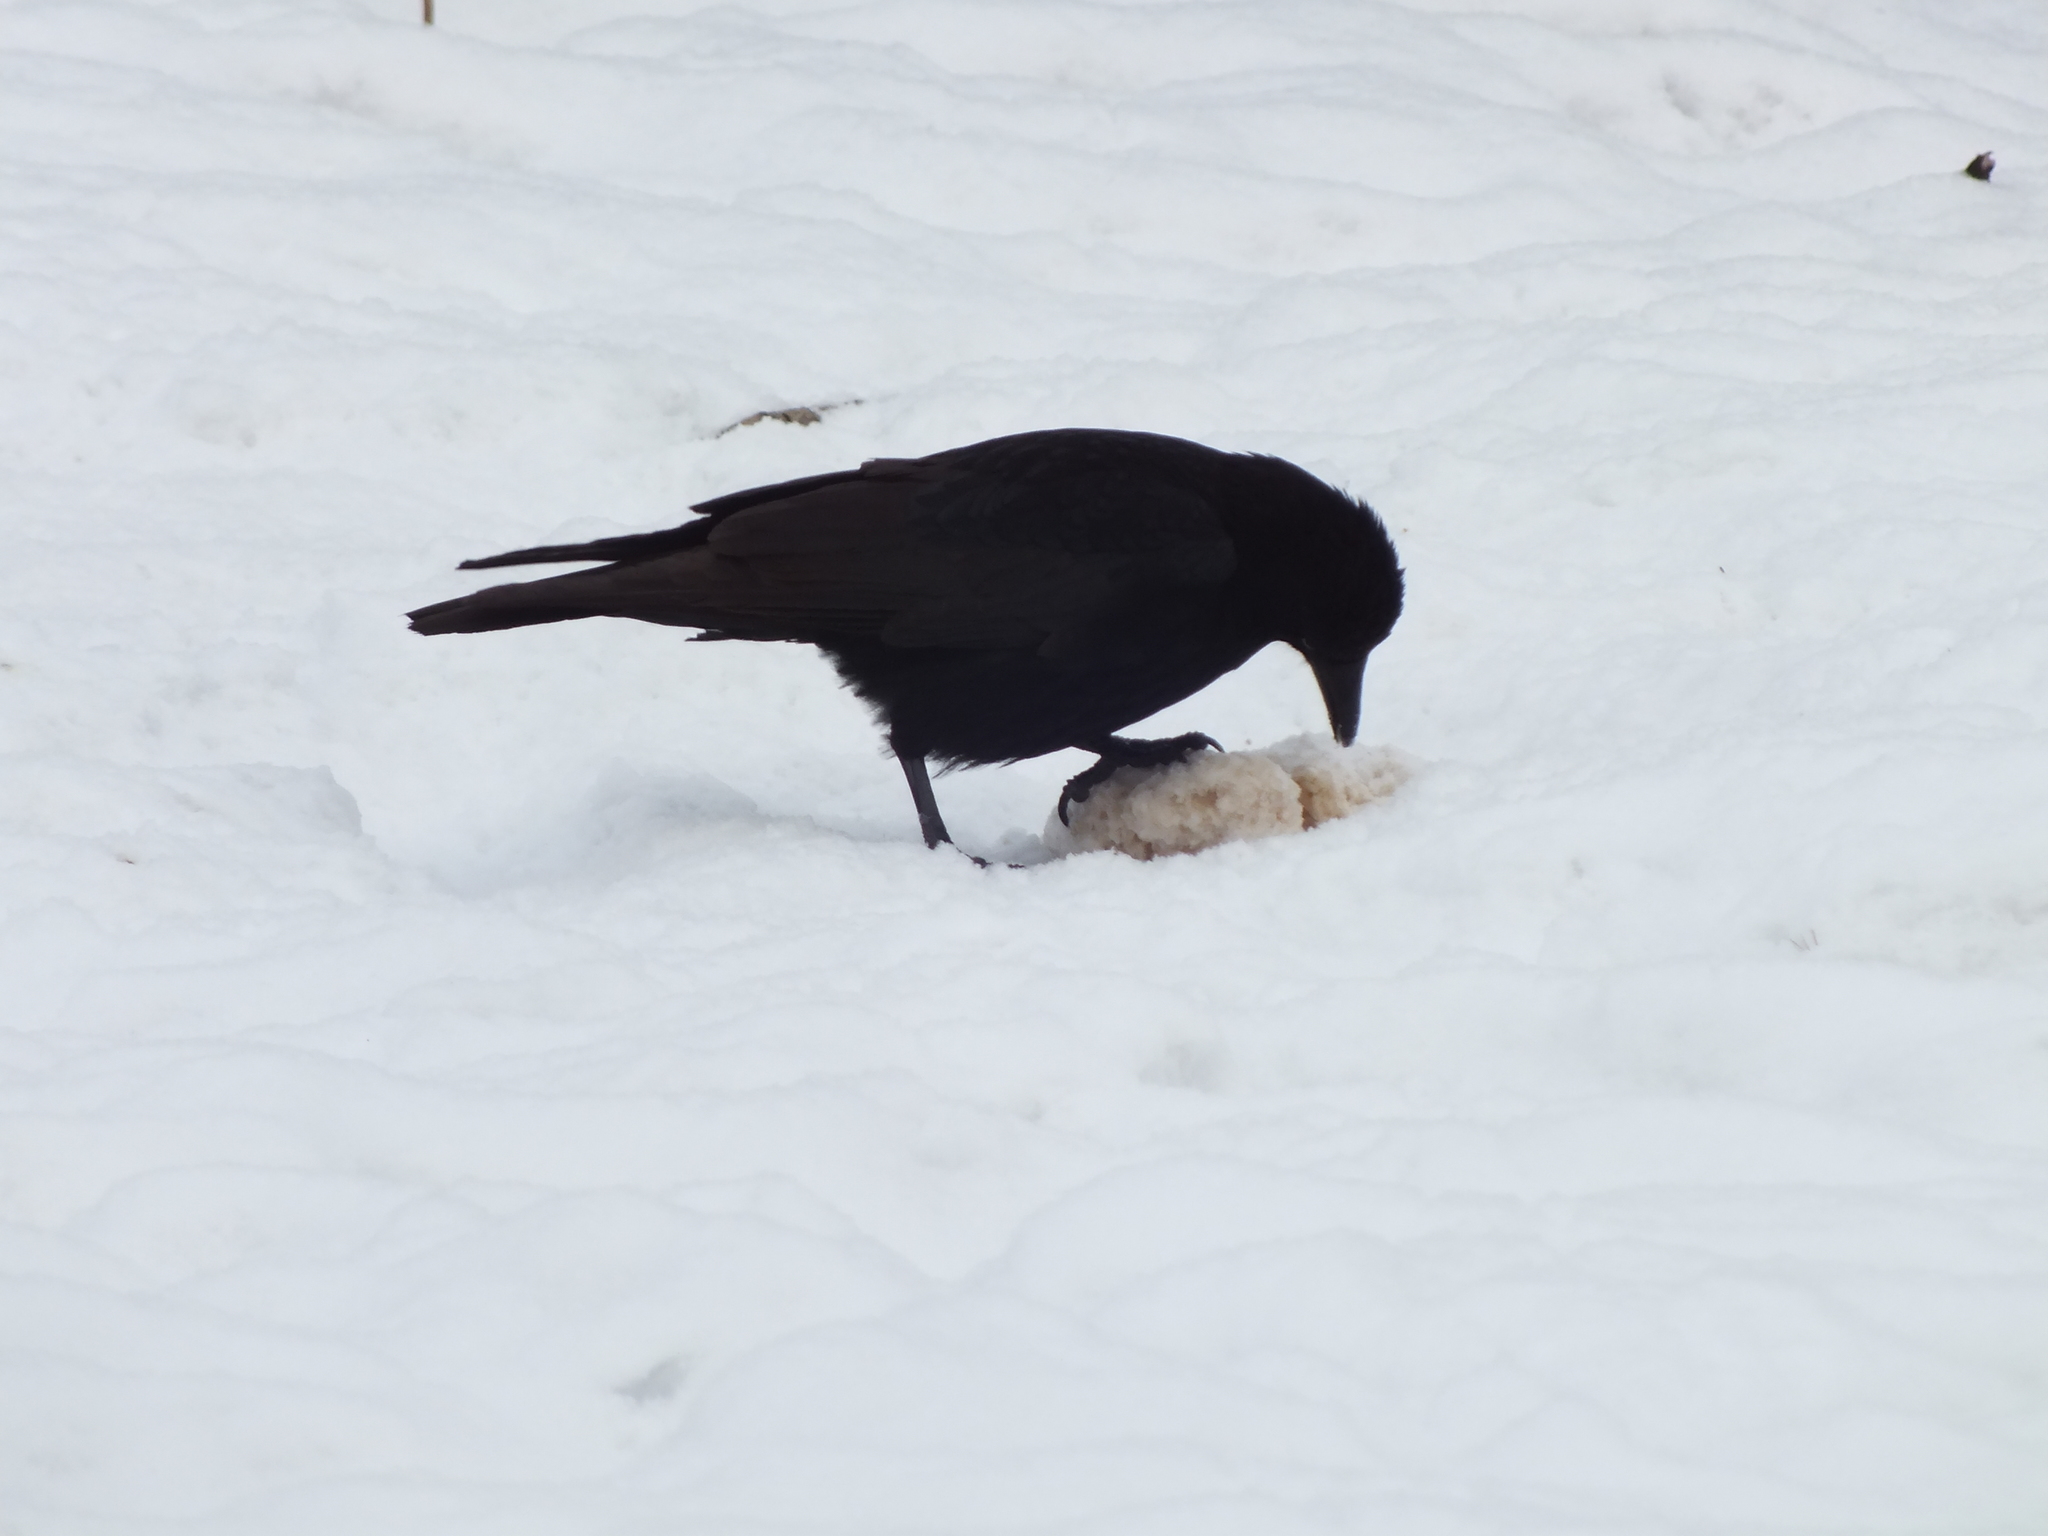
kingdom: Animalia
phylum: Chordata
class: Aves
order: Passeriformes
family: Corvidae
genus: Corvus
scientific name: Corvus corone
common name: Carrion crow
